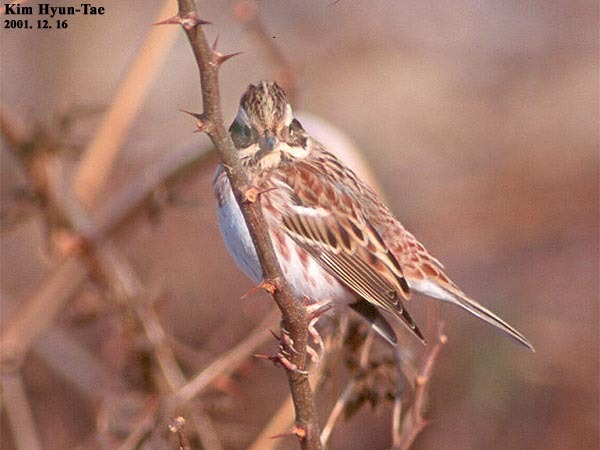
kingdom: Animalia
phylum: Chordata
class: Aves
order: Passeriformes
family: Emberizidae
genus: Emberiza
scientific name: Emberiza rustica
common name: Rustic bunting
